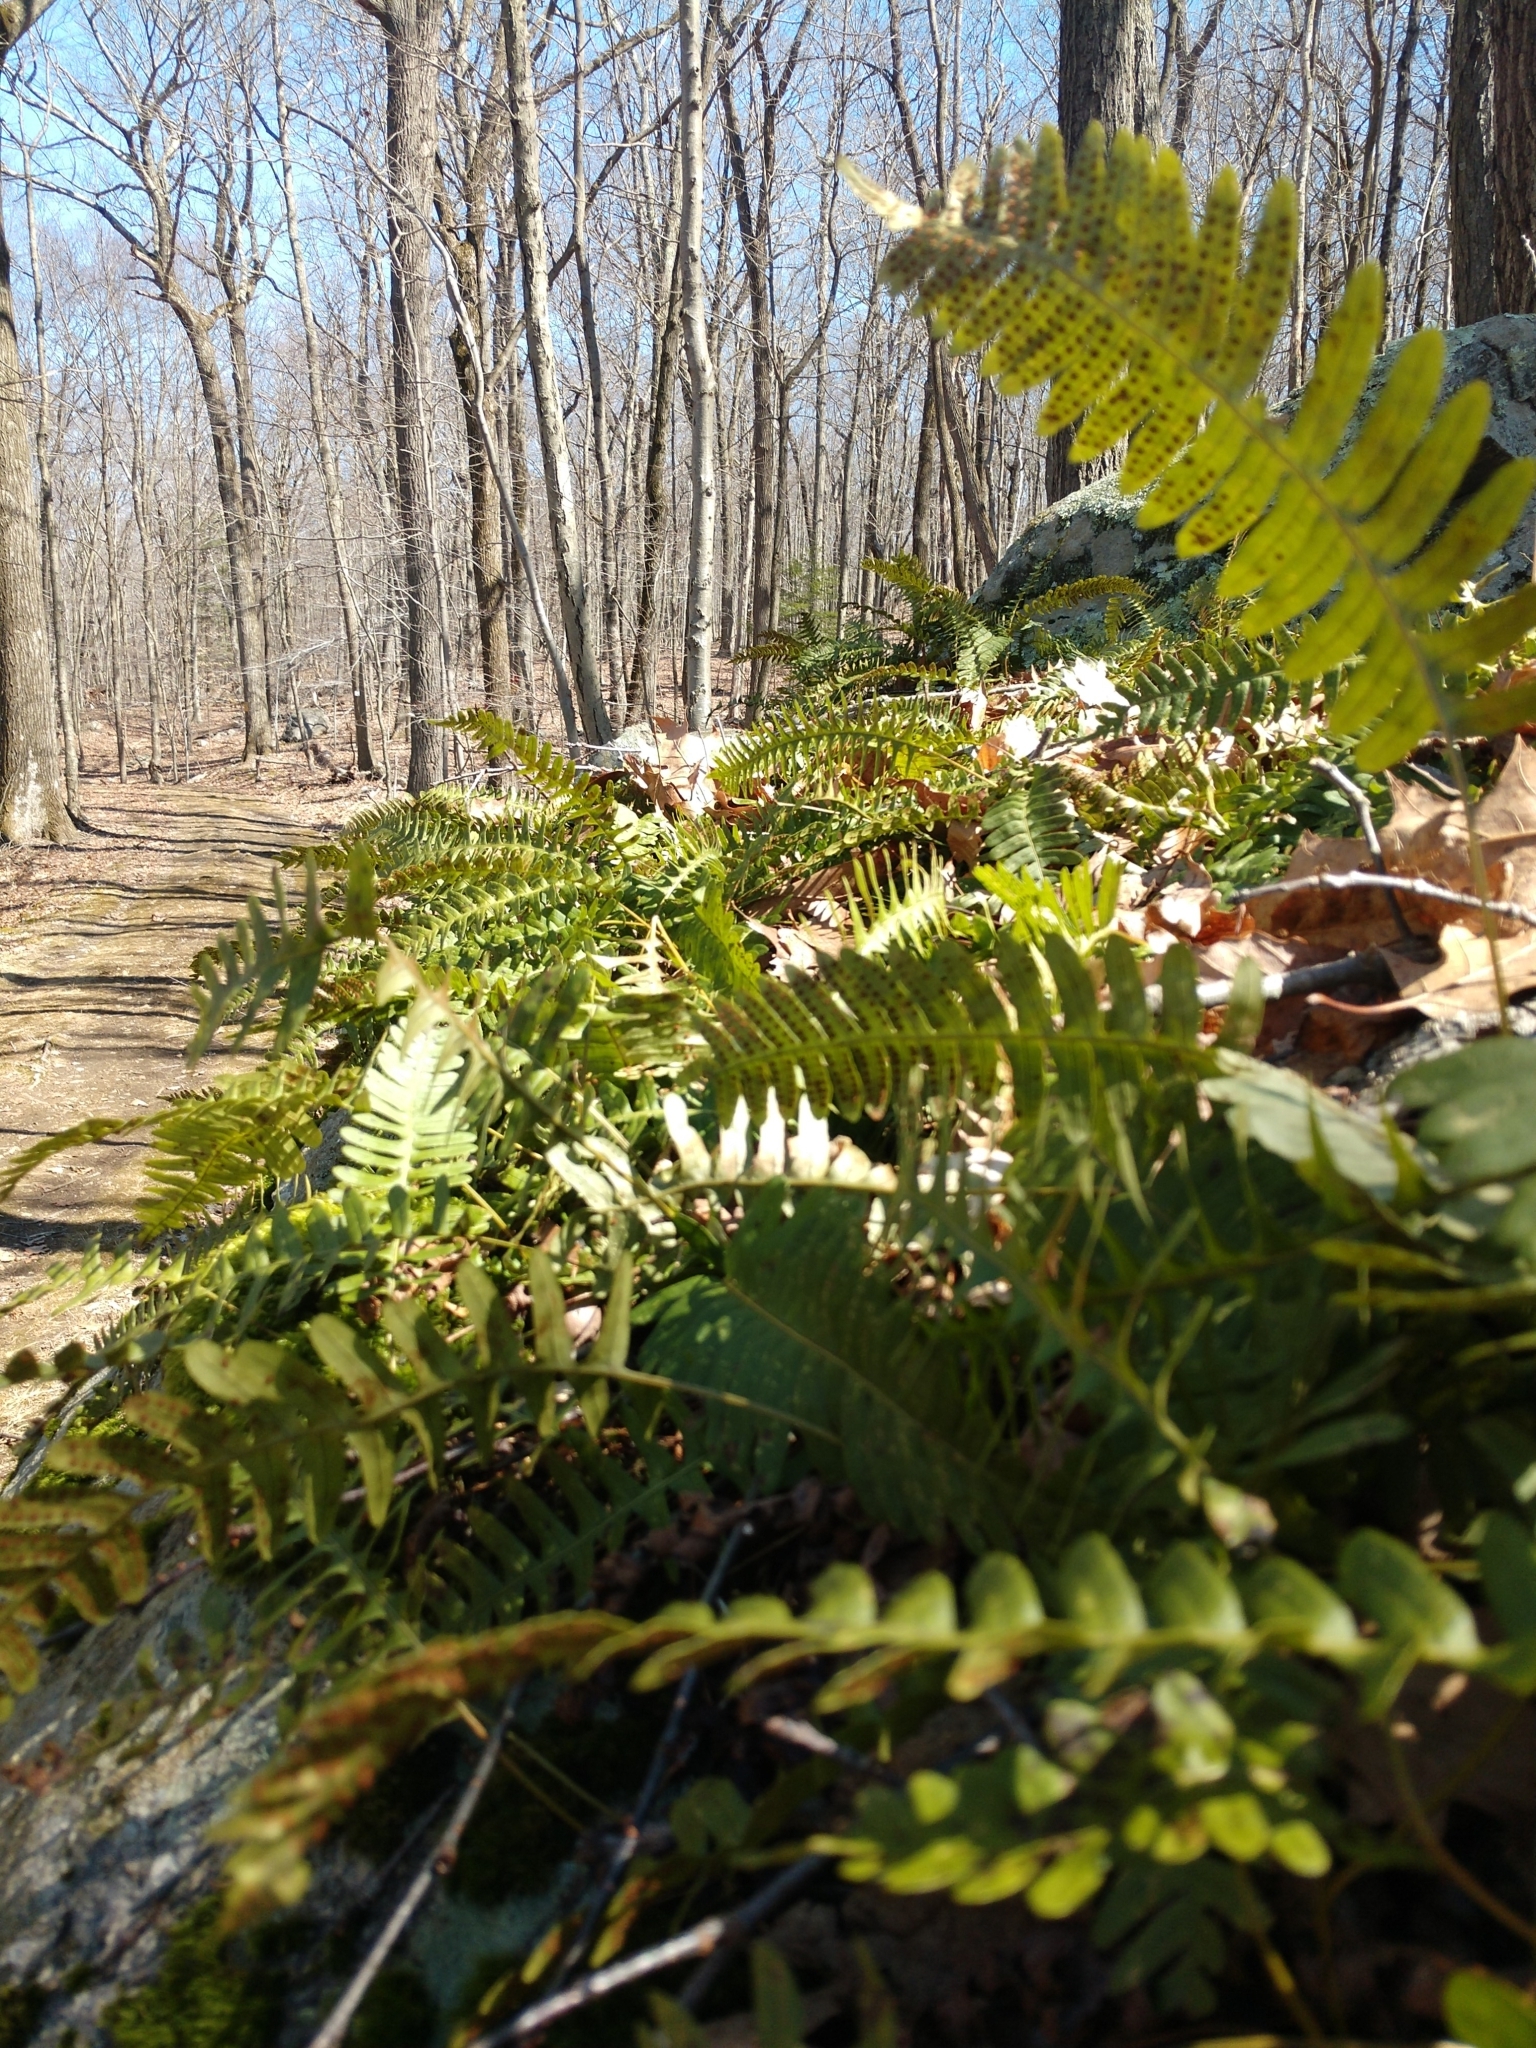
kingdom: Plantae
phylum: Tracheophyta
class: Polypodiopsida
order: Polypodiales
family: Polypodiaceae
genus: Polypodium
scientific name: Polypodium virginianum
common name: American wall fern
